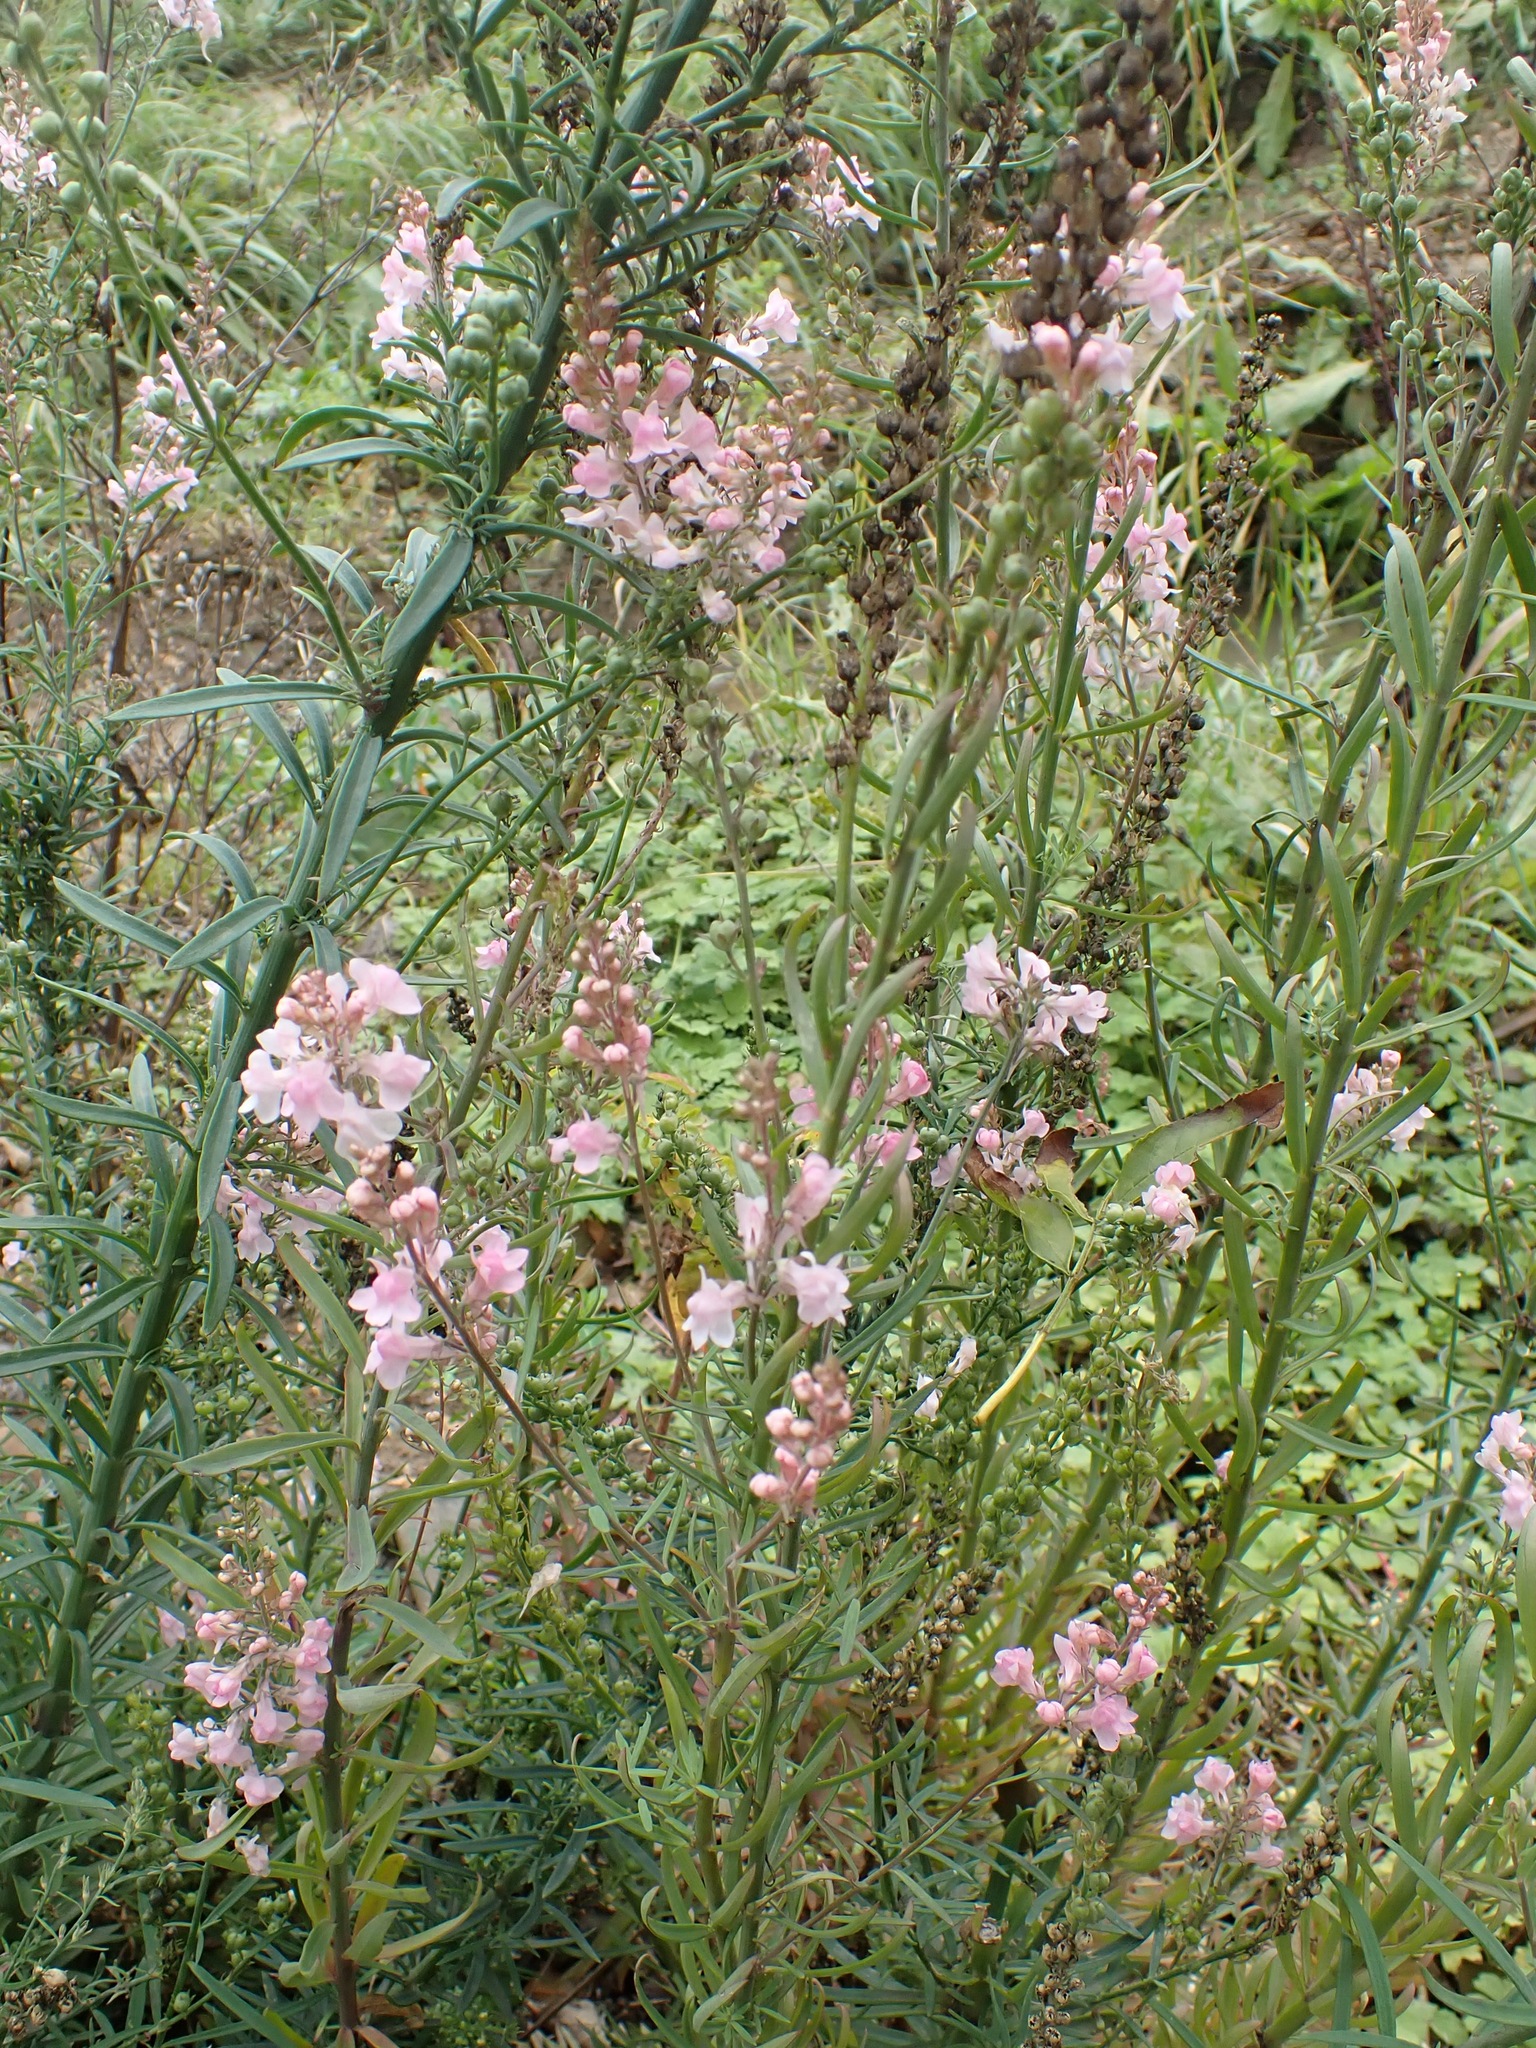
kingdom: Plantae
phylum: Tracheophyta
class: Magnoliopsida
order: Lamiales
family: Plantaginaceae
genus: Linaria
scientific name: Linaria purpurea
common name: Purple toadflax
